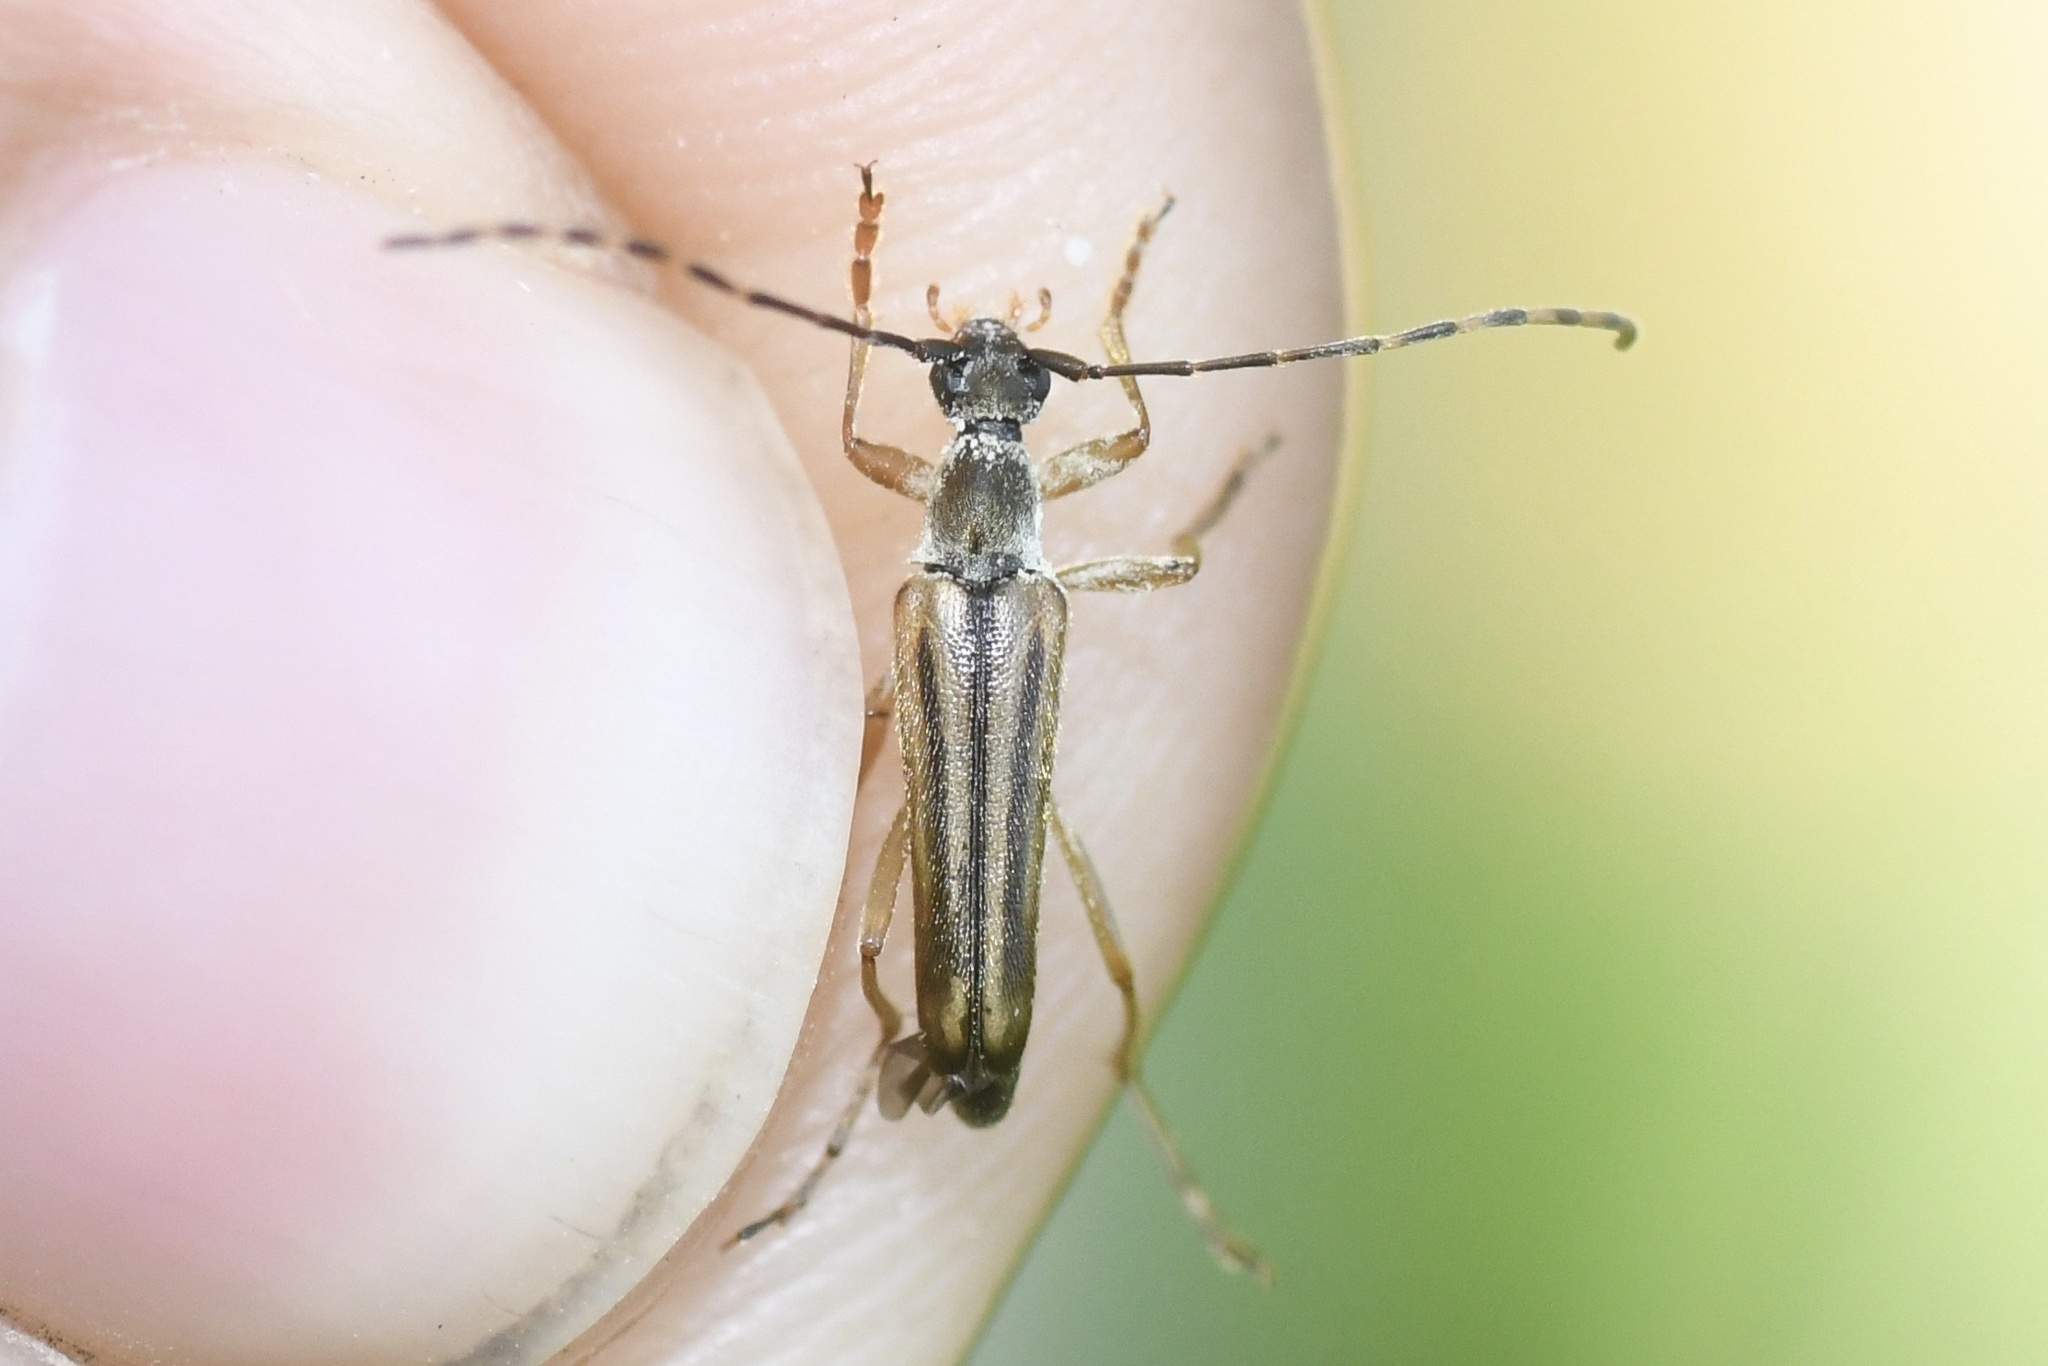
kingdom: Animalia
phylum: Arthropoda
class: Insecta
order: Coleoptera
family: Cerambycidae
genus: Analeptura
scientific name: Analeptura lineola
